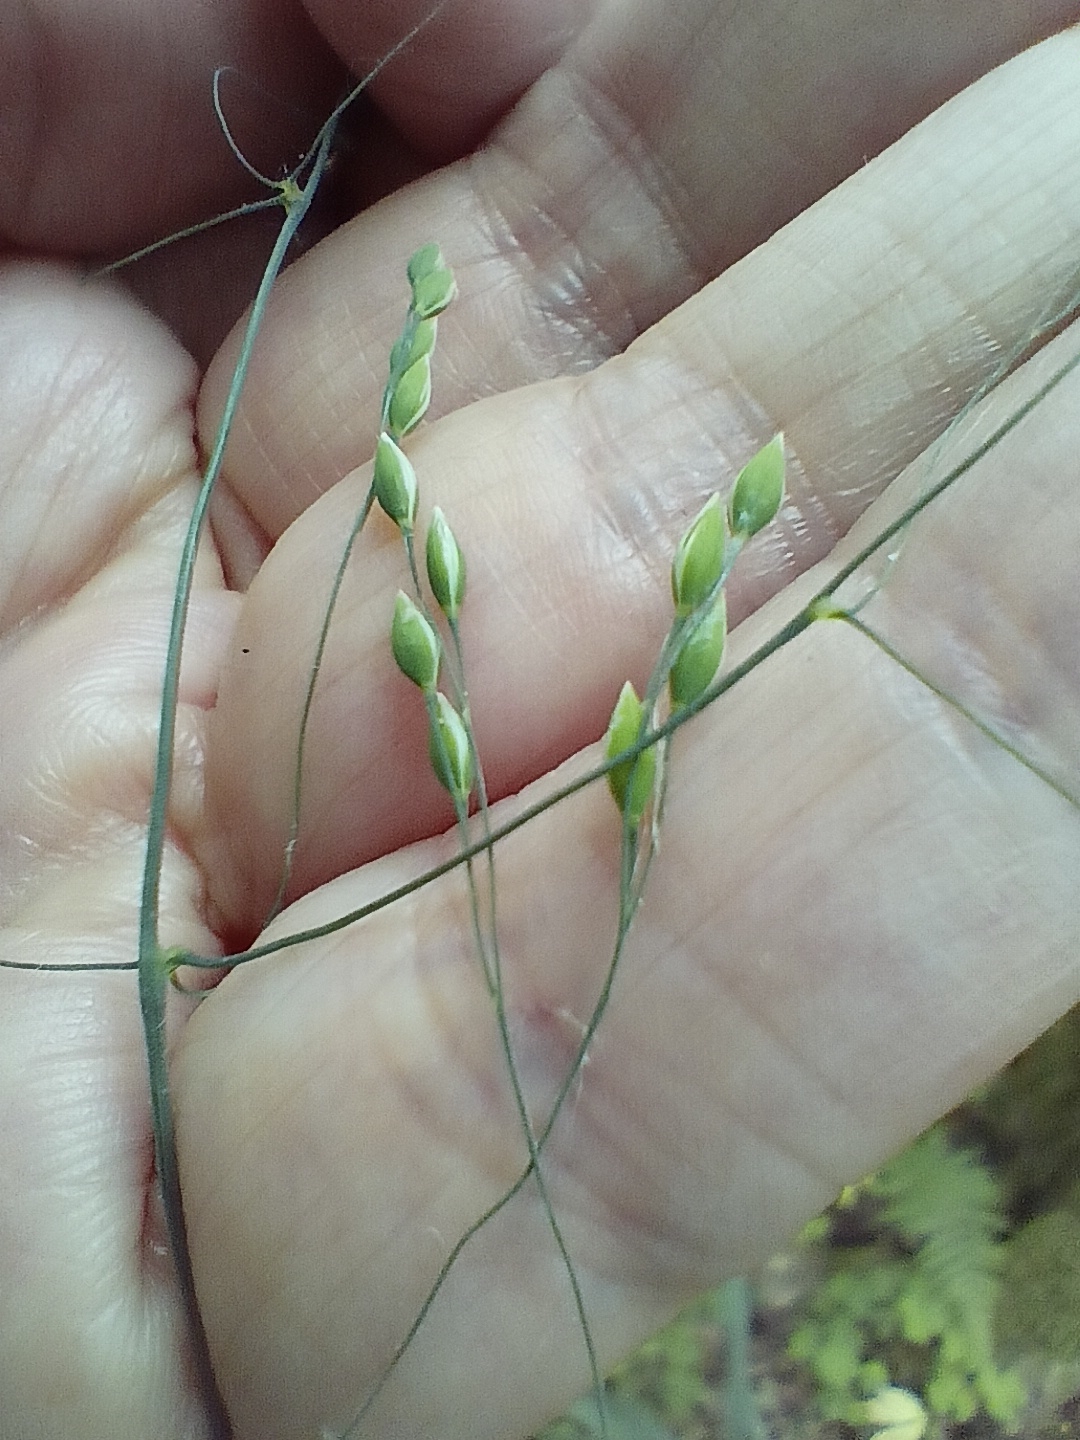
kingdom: Plantae
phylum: Tracheophyta
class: Liliopsida
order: Poales
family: Poaceae
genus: Milium
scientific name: Milium effusum
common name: Wood millet
